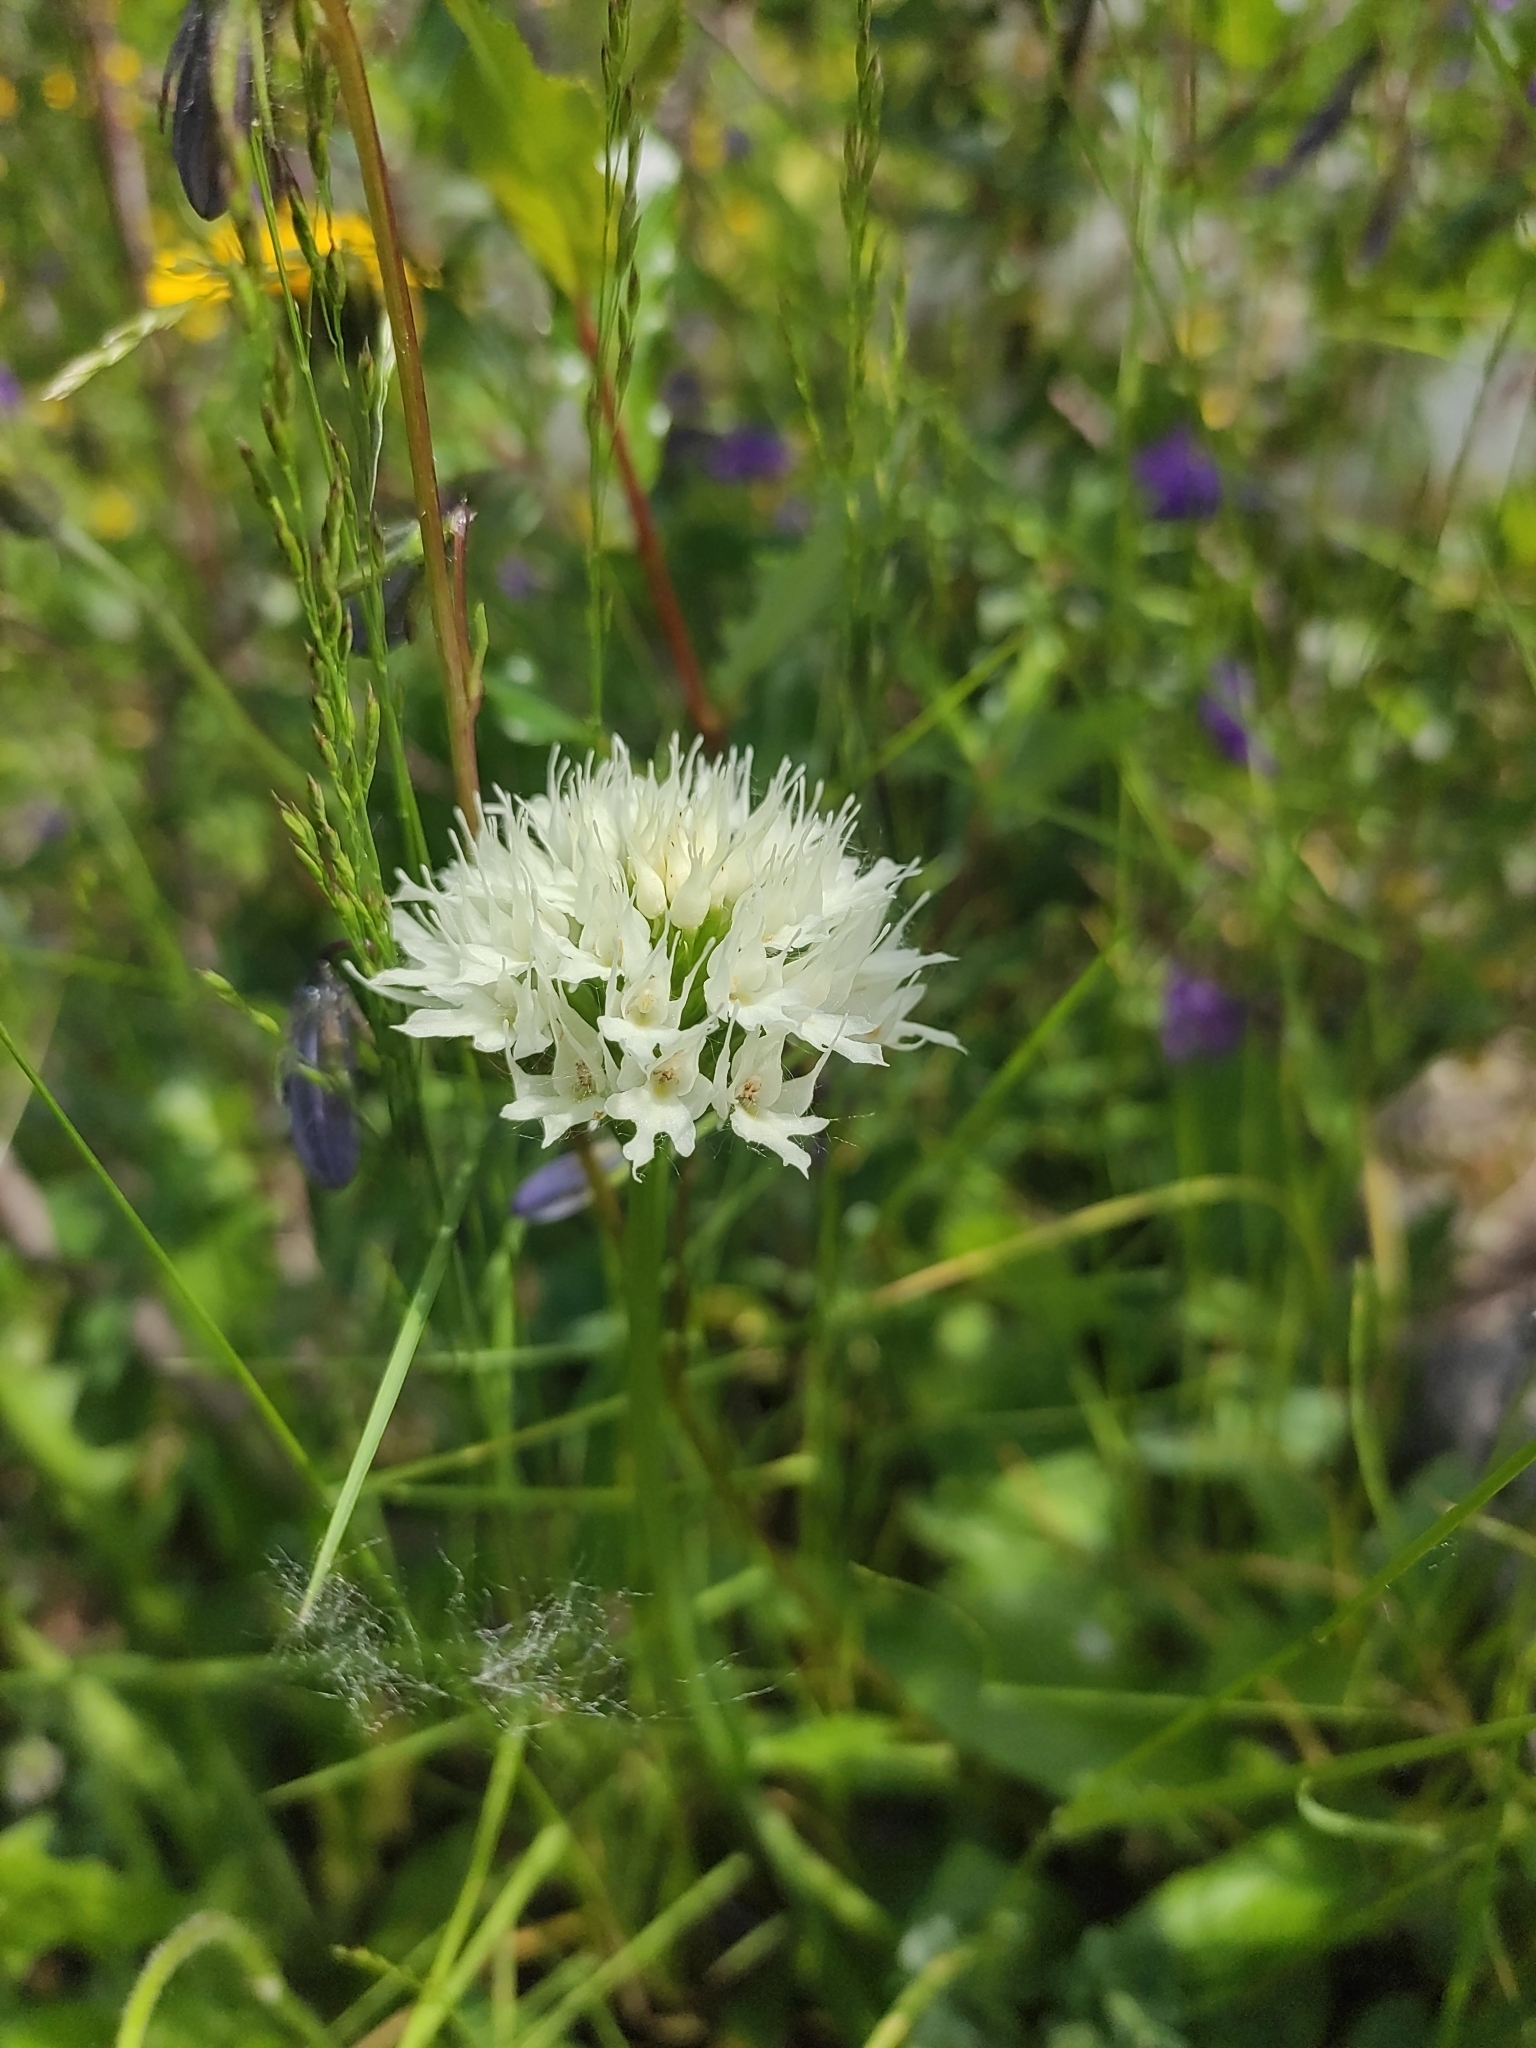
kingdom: Plantae
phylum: Tracheophyta
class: Liliopsida
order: Asparagales
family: Orchidaceae
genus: Traunsteinera
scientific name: Traunsteinera sphaerica
